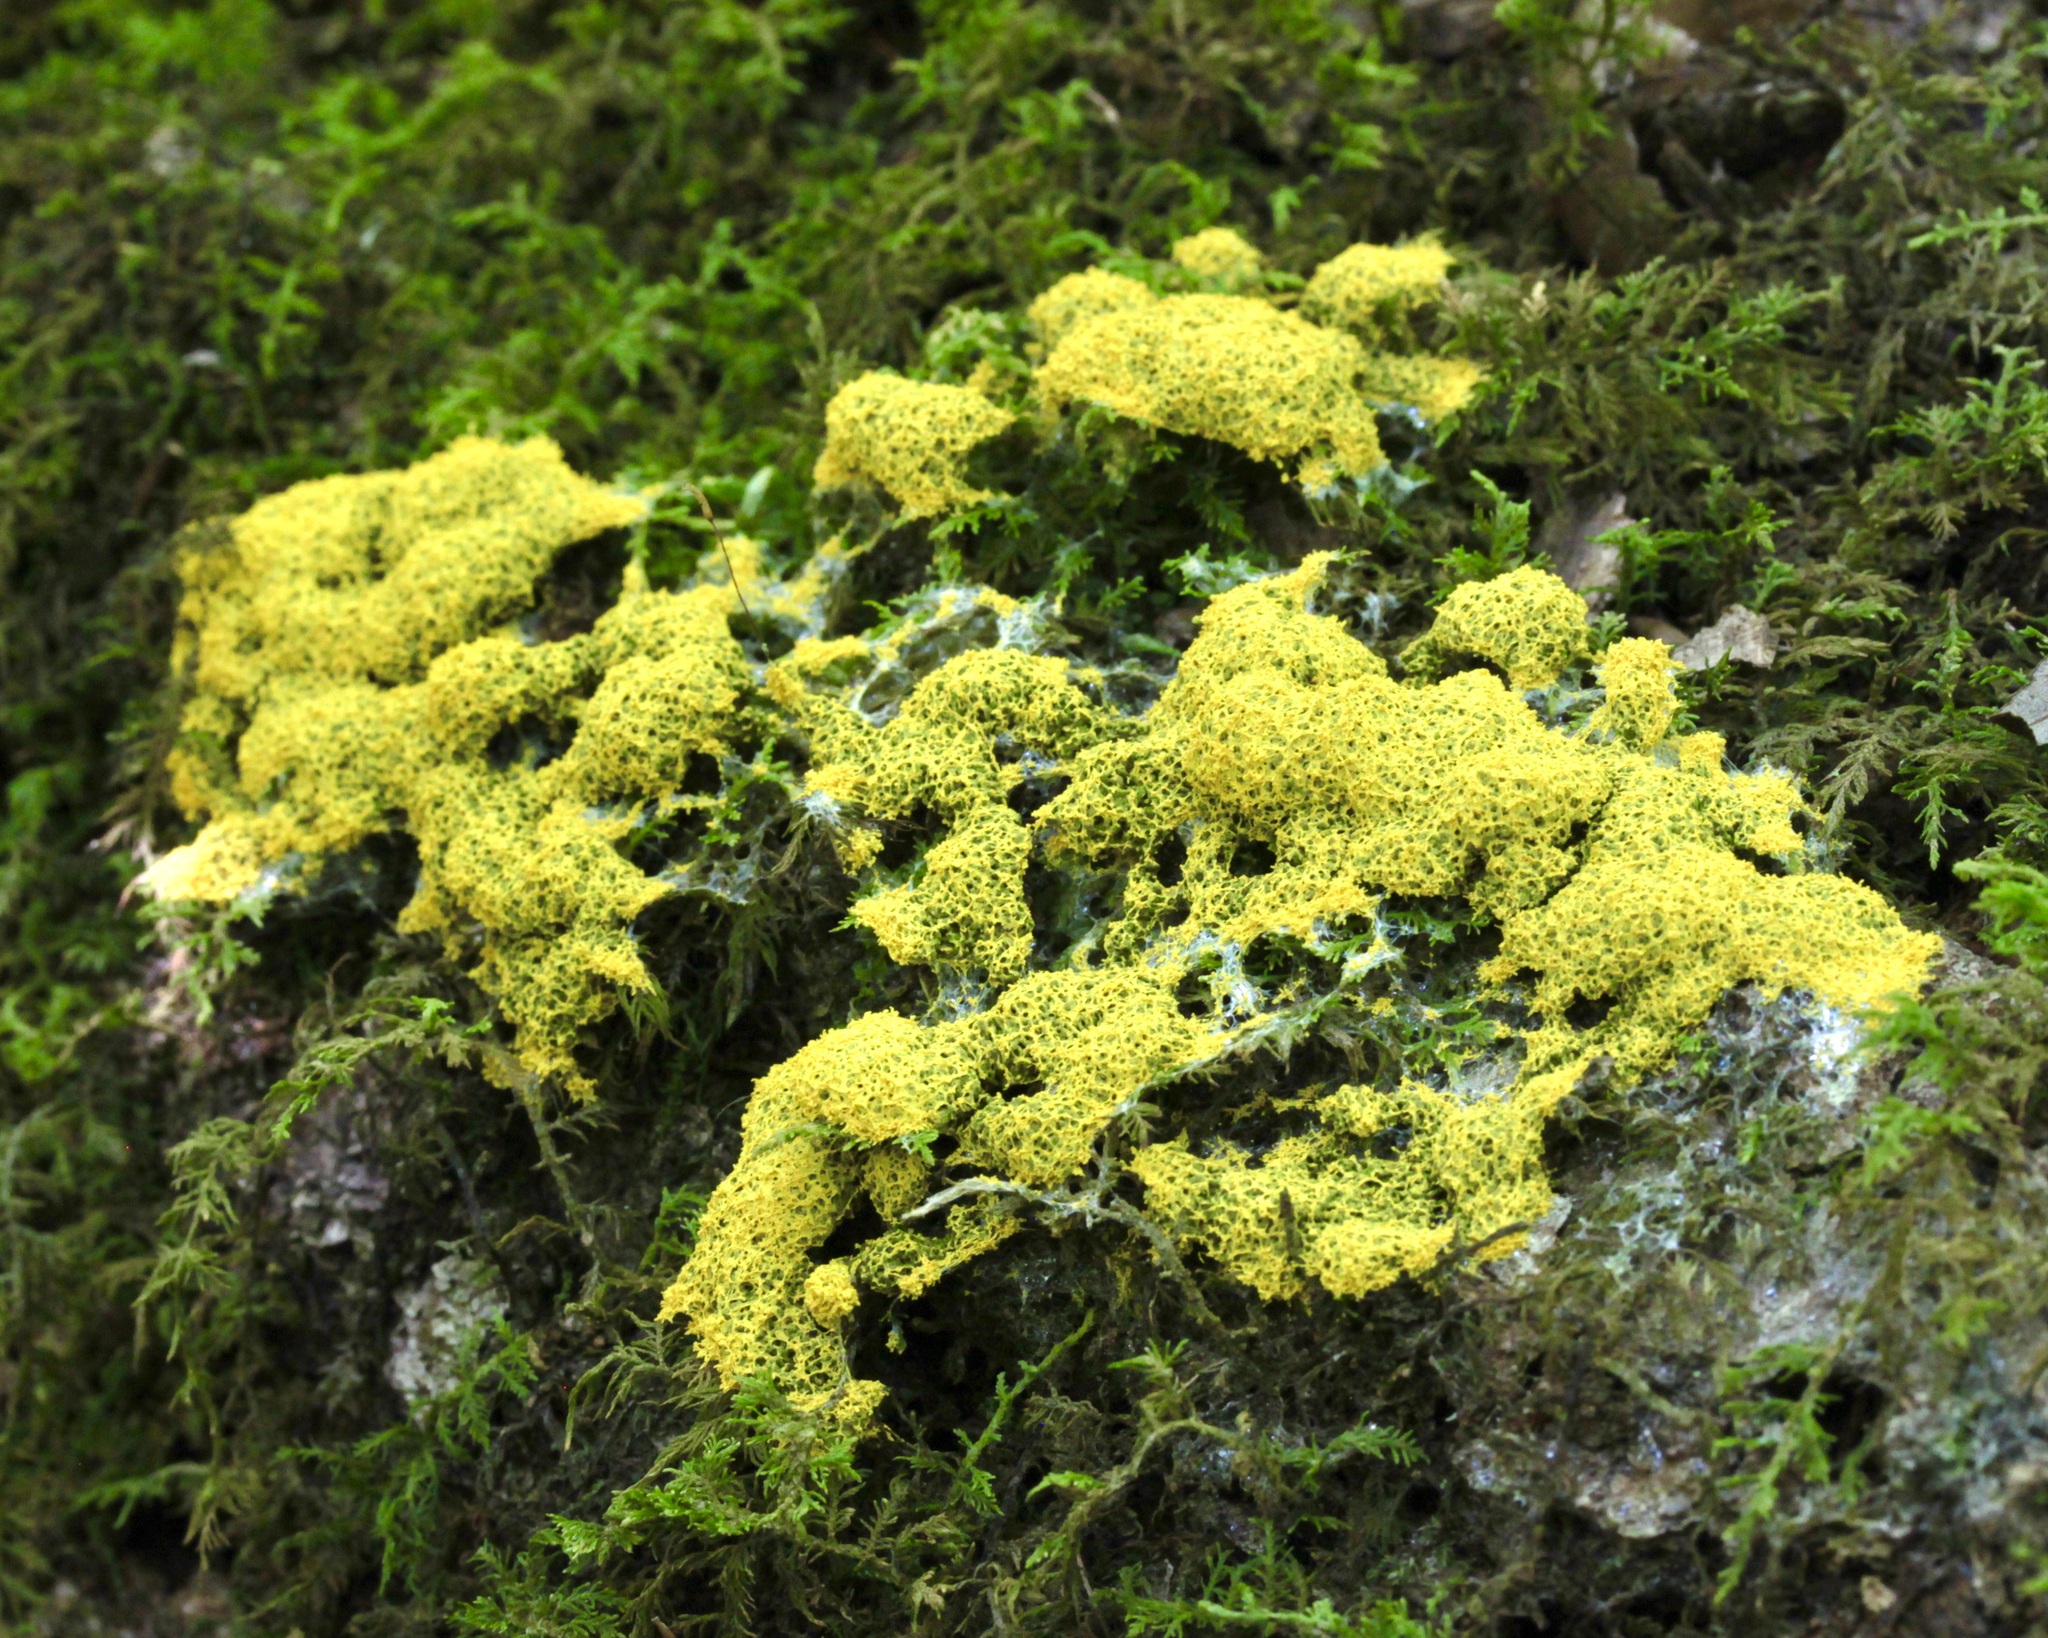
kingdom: Protozoa
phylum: Mycetozoa
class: Myxomycetes
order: Physarales
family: Physaraceae
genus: Fuligo
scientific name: Fuligo septica
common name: Dog vomit slime mold
